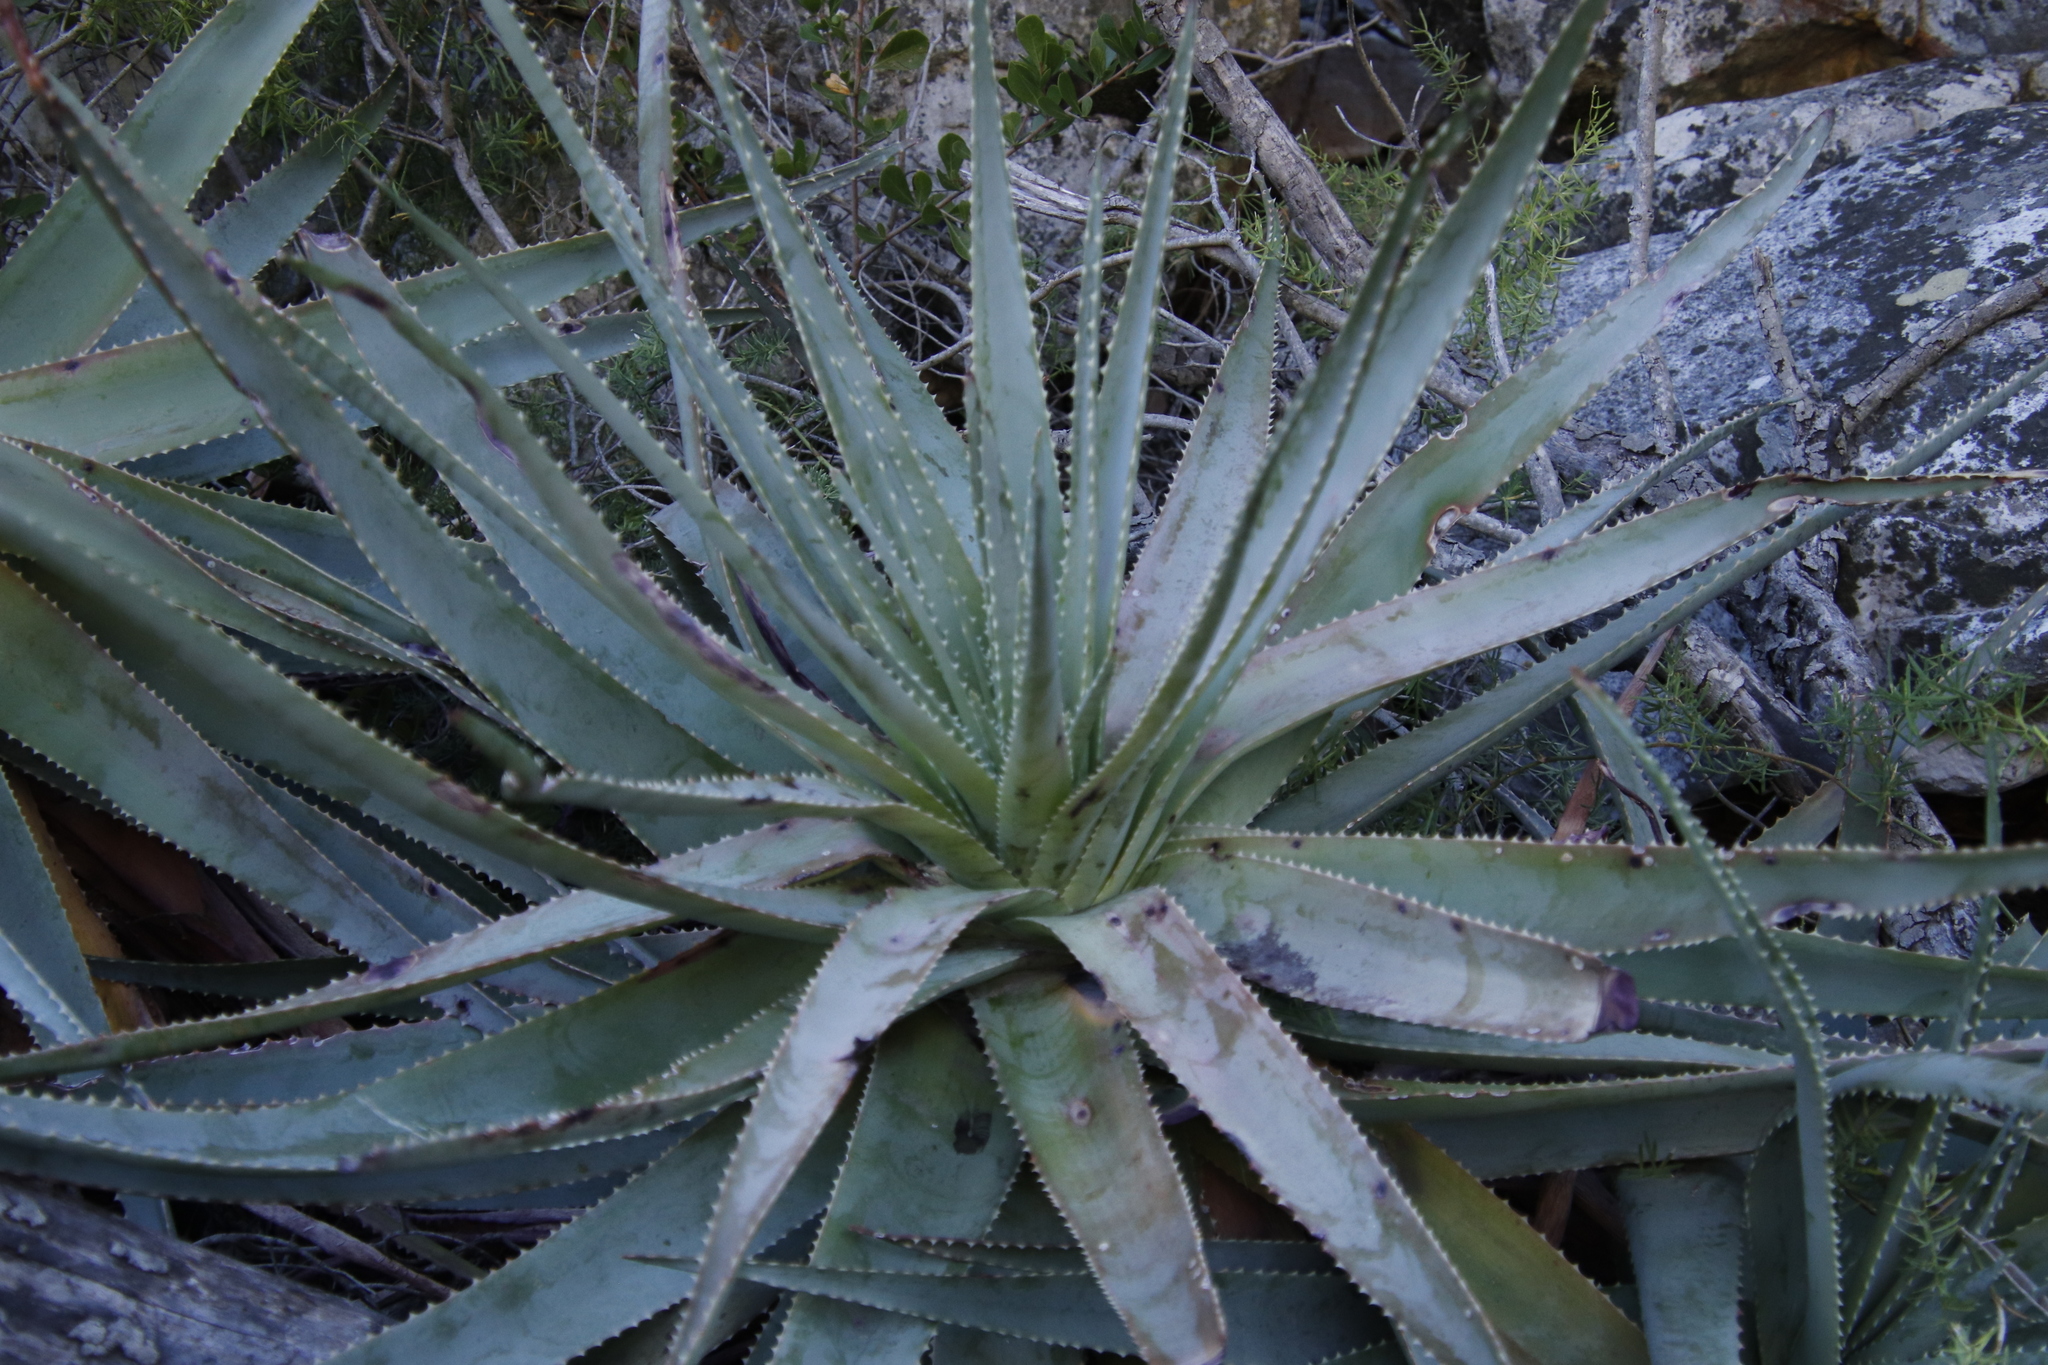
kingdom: Plantae
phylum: Tracheophyta
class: Liliopsida
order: Asparagales
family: Asphodelaceae
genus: Aloe
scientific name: Aloe succotrina
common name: Bombay aloe
